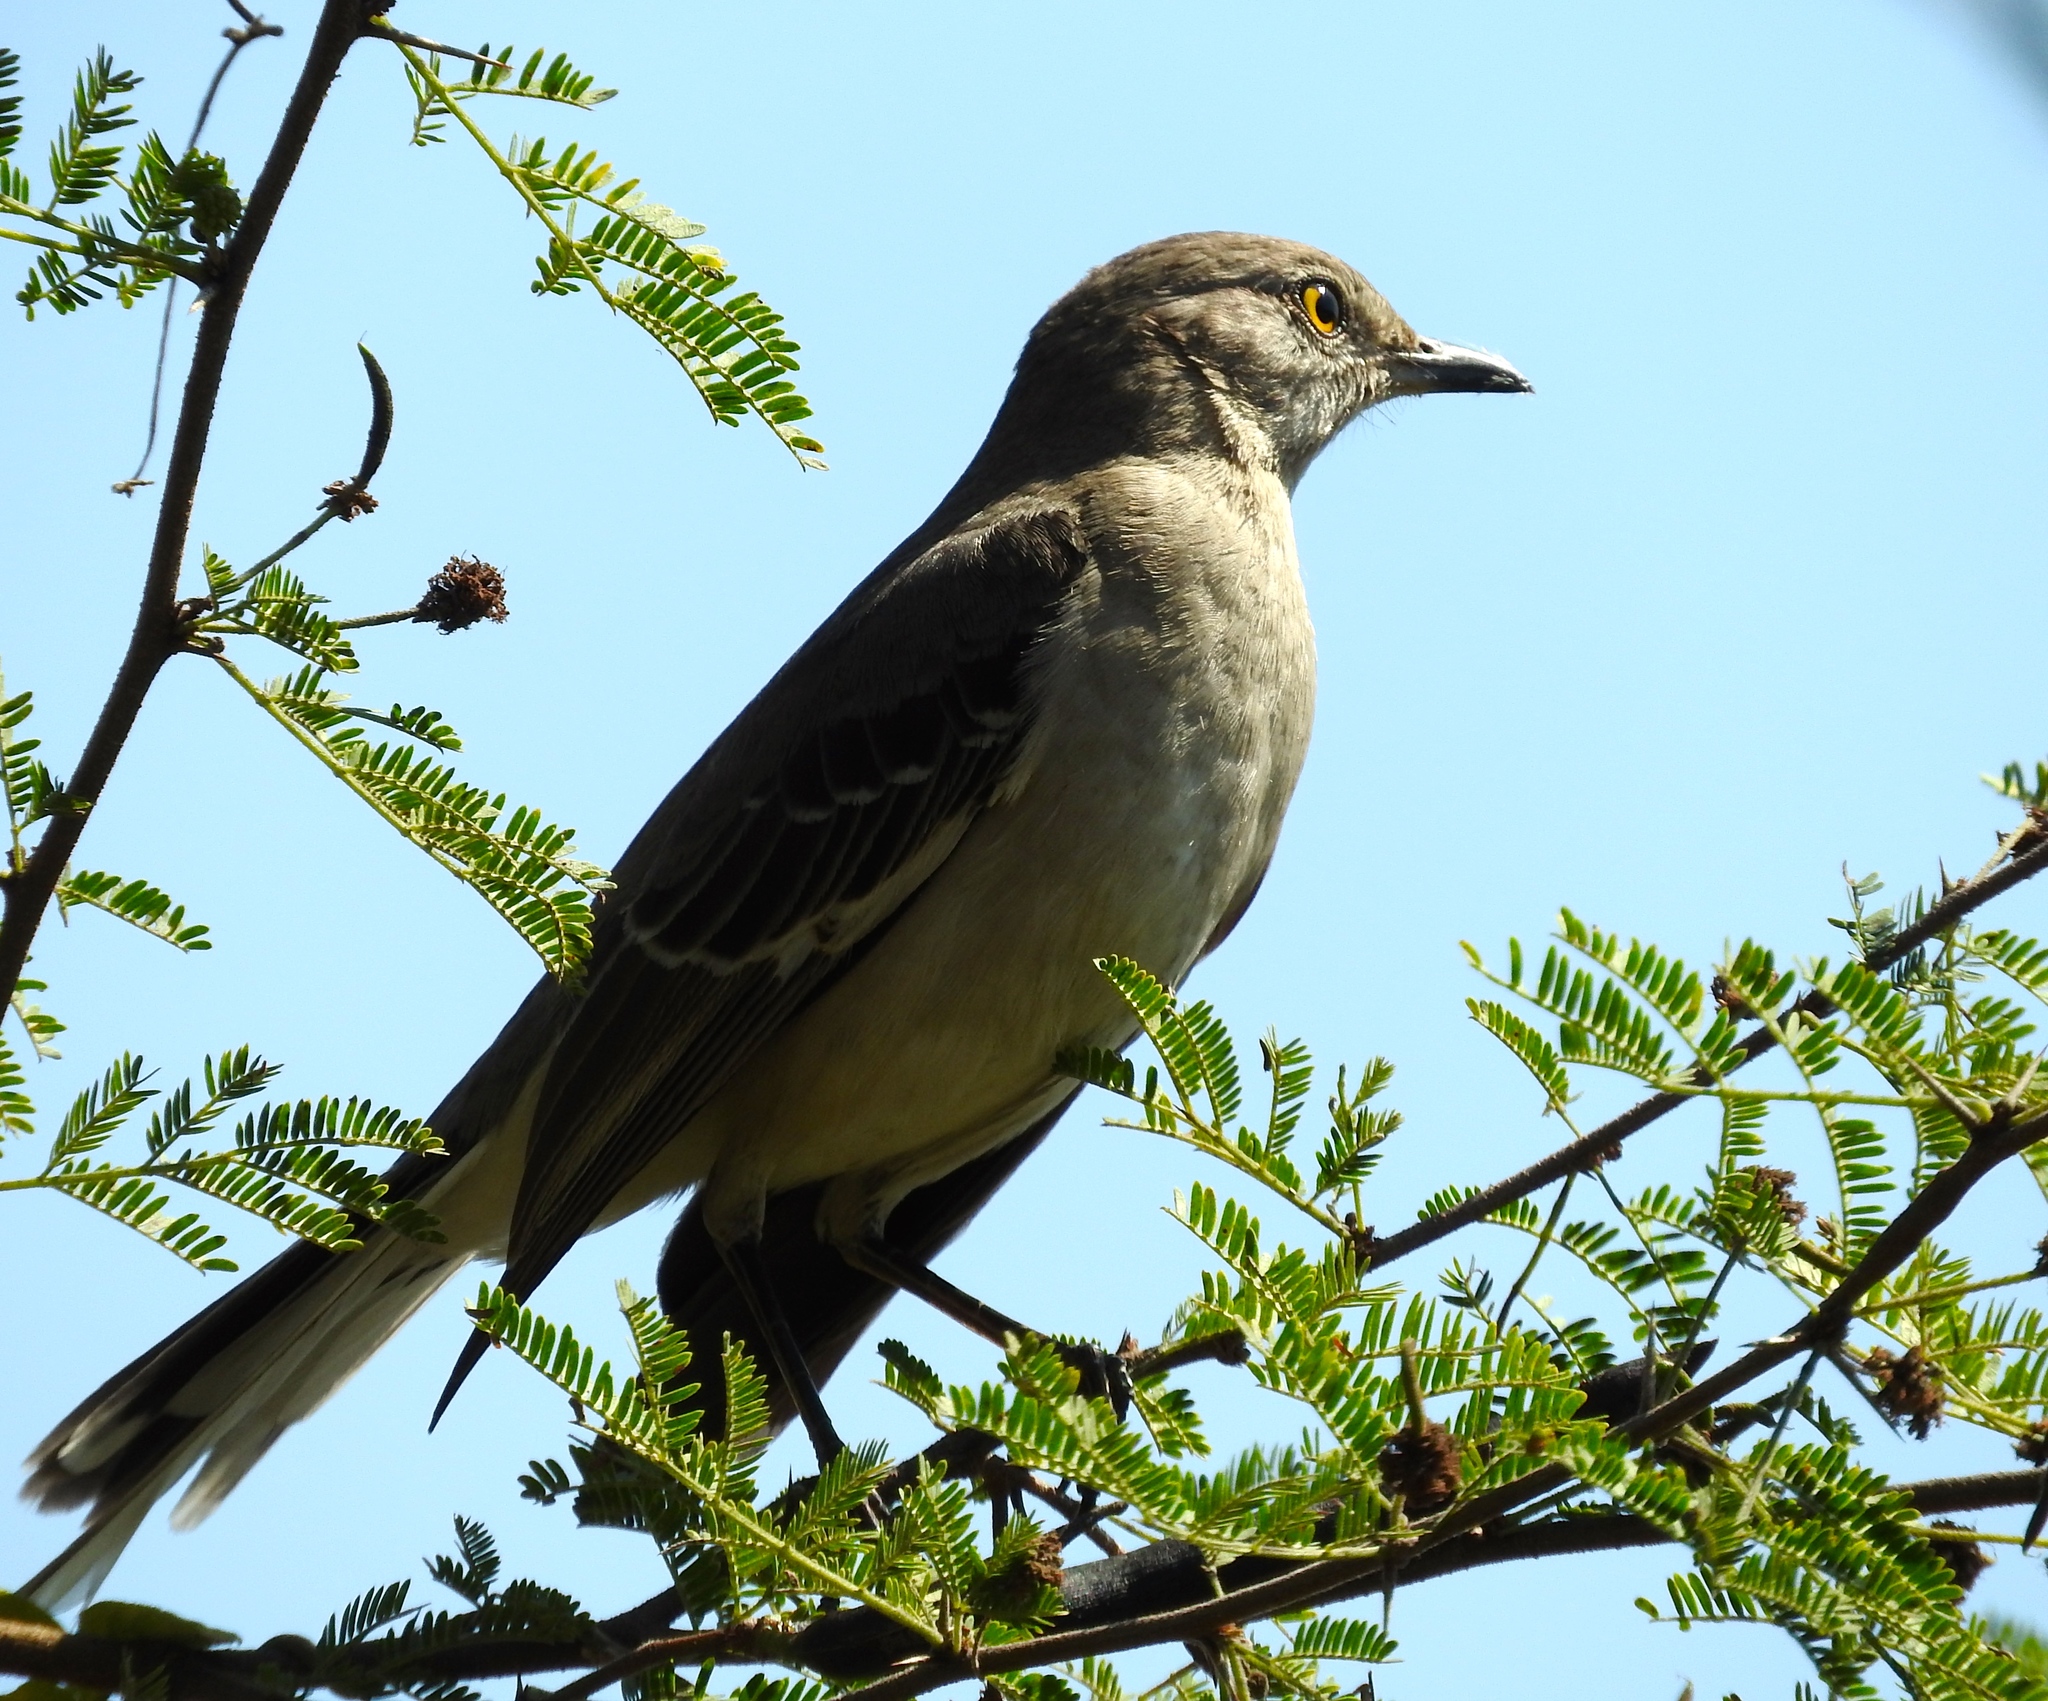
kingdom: Animalia
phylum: Chordata
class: Aves
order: Passeriformes
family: Mimidae
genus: Mimus
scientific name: Mimus polyglottos
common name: Northern mockingbird
